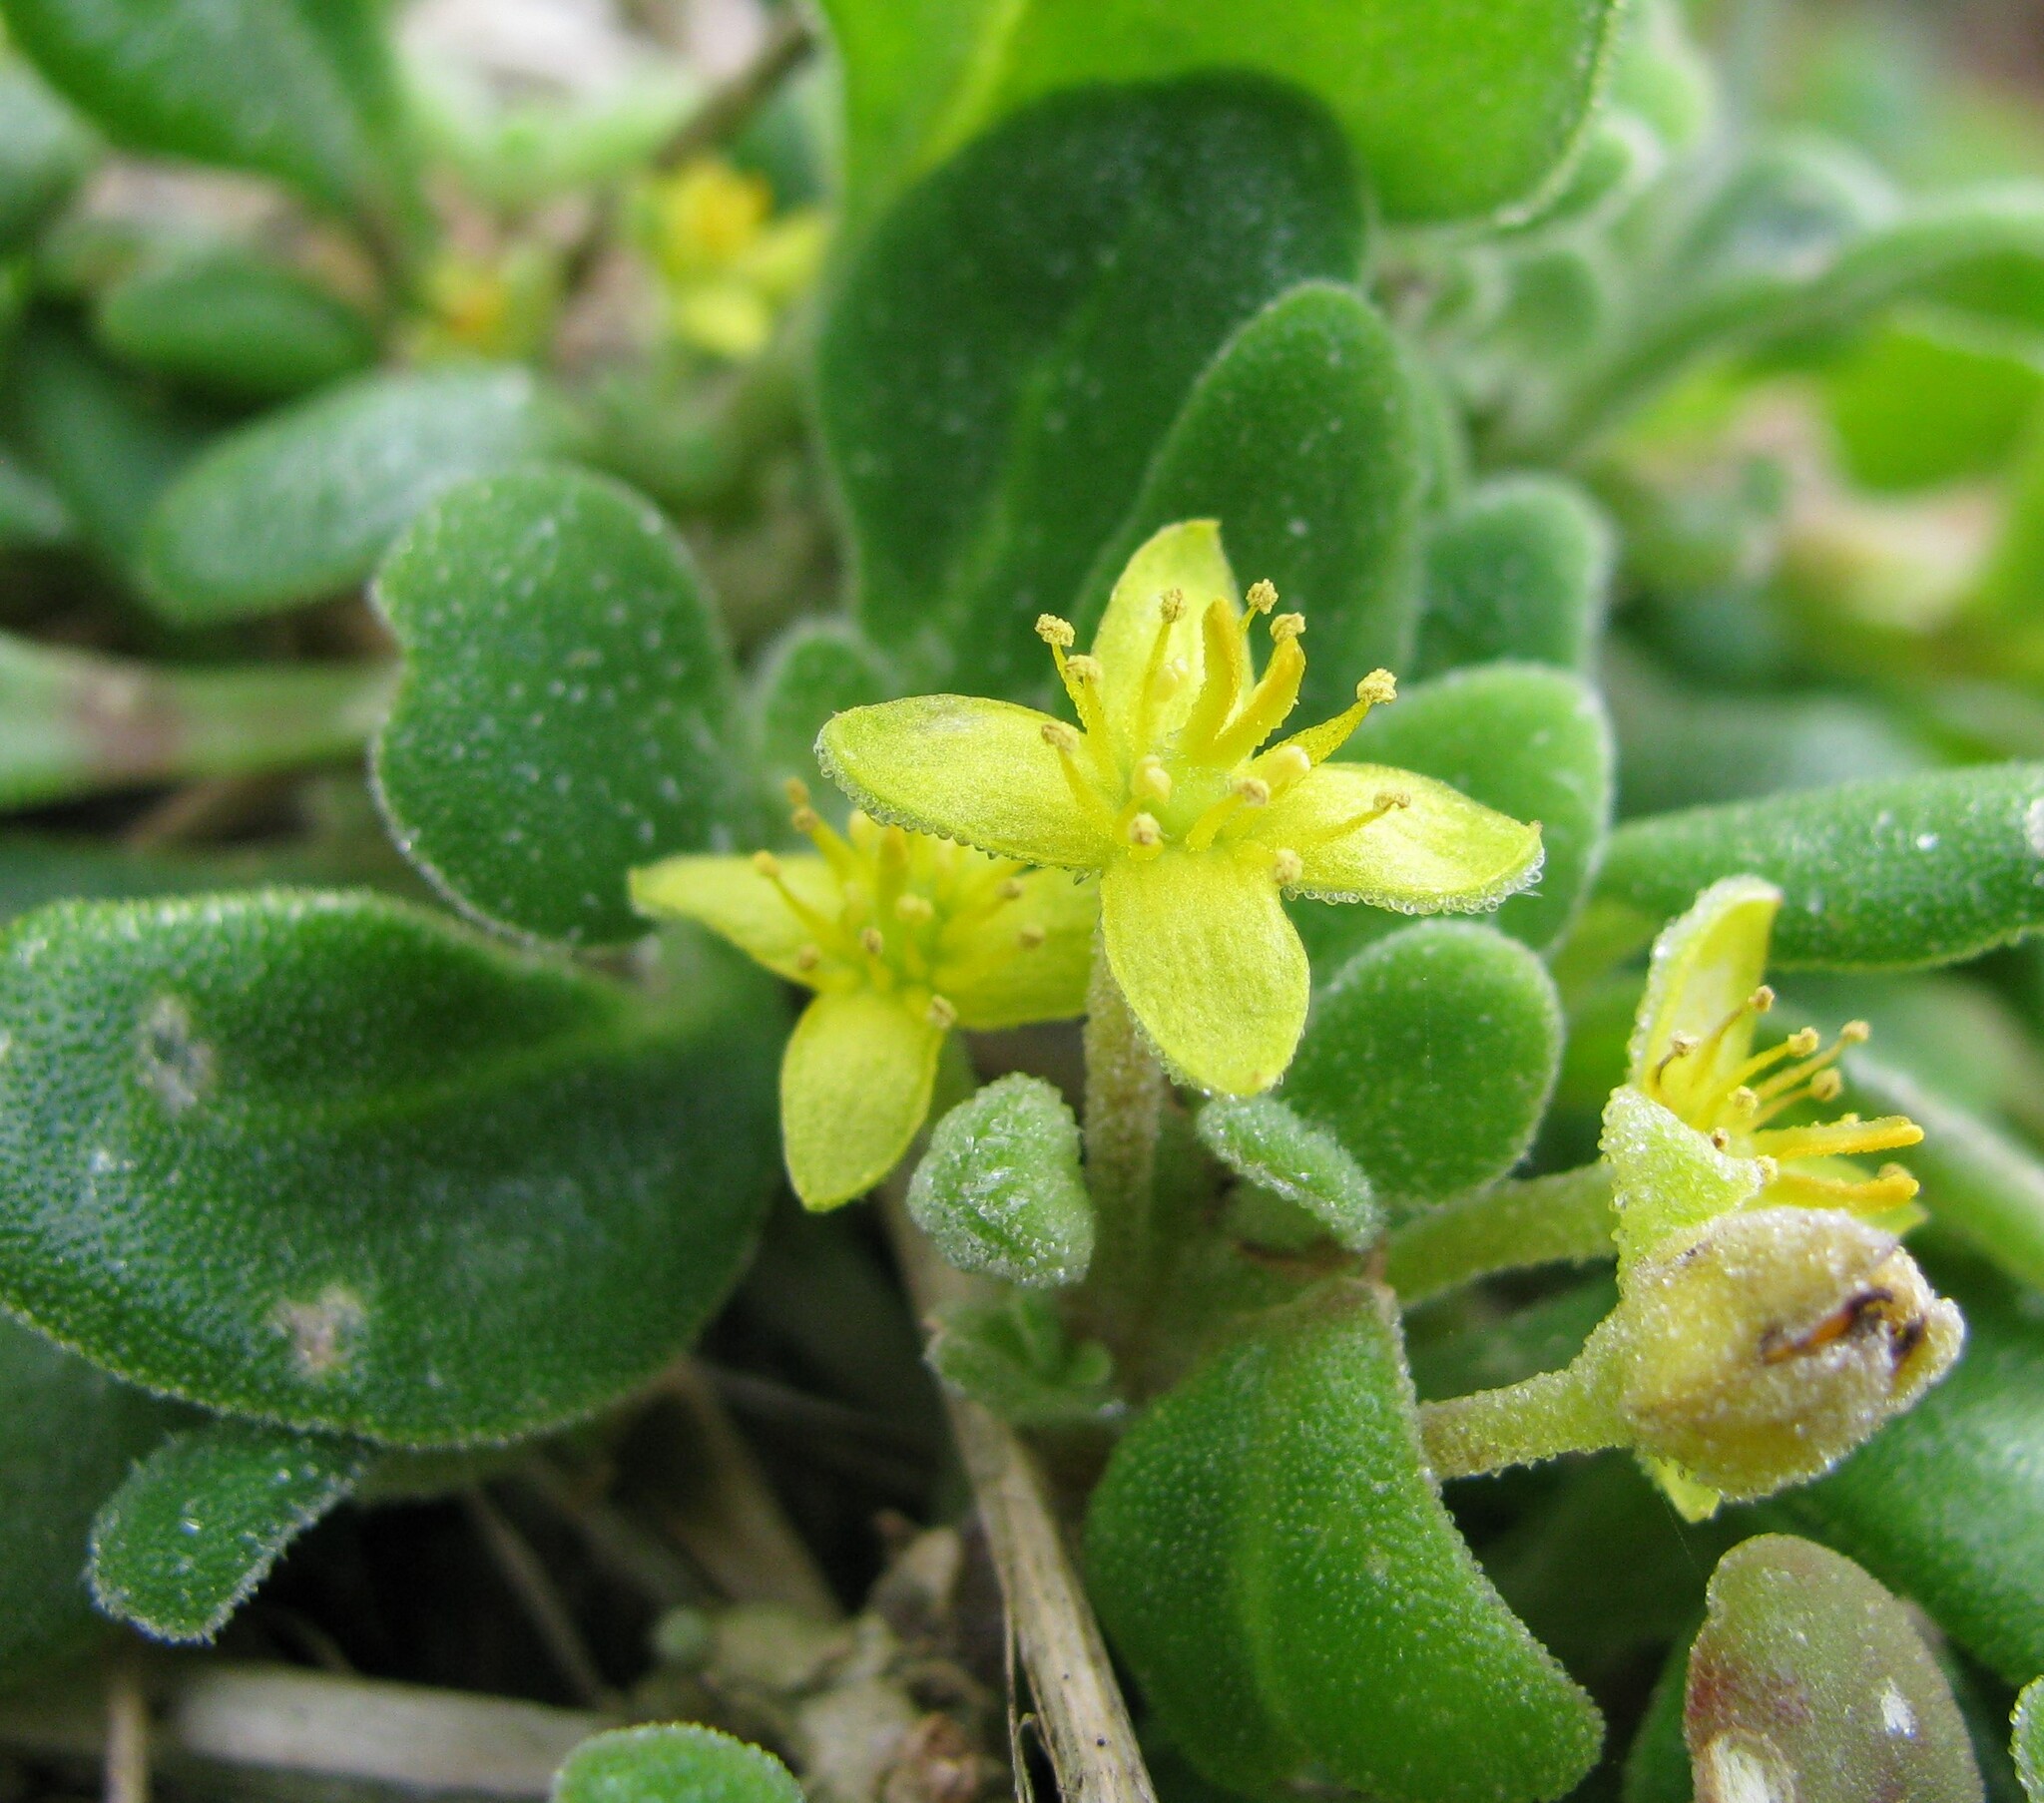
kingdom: Plantae
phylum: Tracheophyta
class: Magnoliopsida
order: Caryophyllales
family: Aizoaceae
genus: Tetragonia
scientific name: Tetragonia implexicoma
